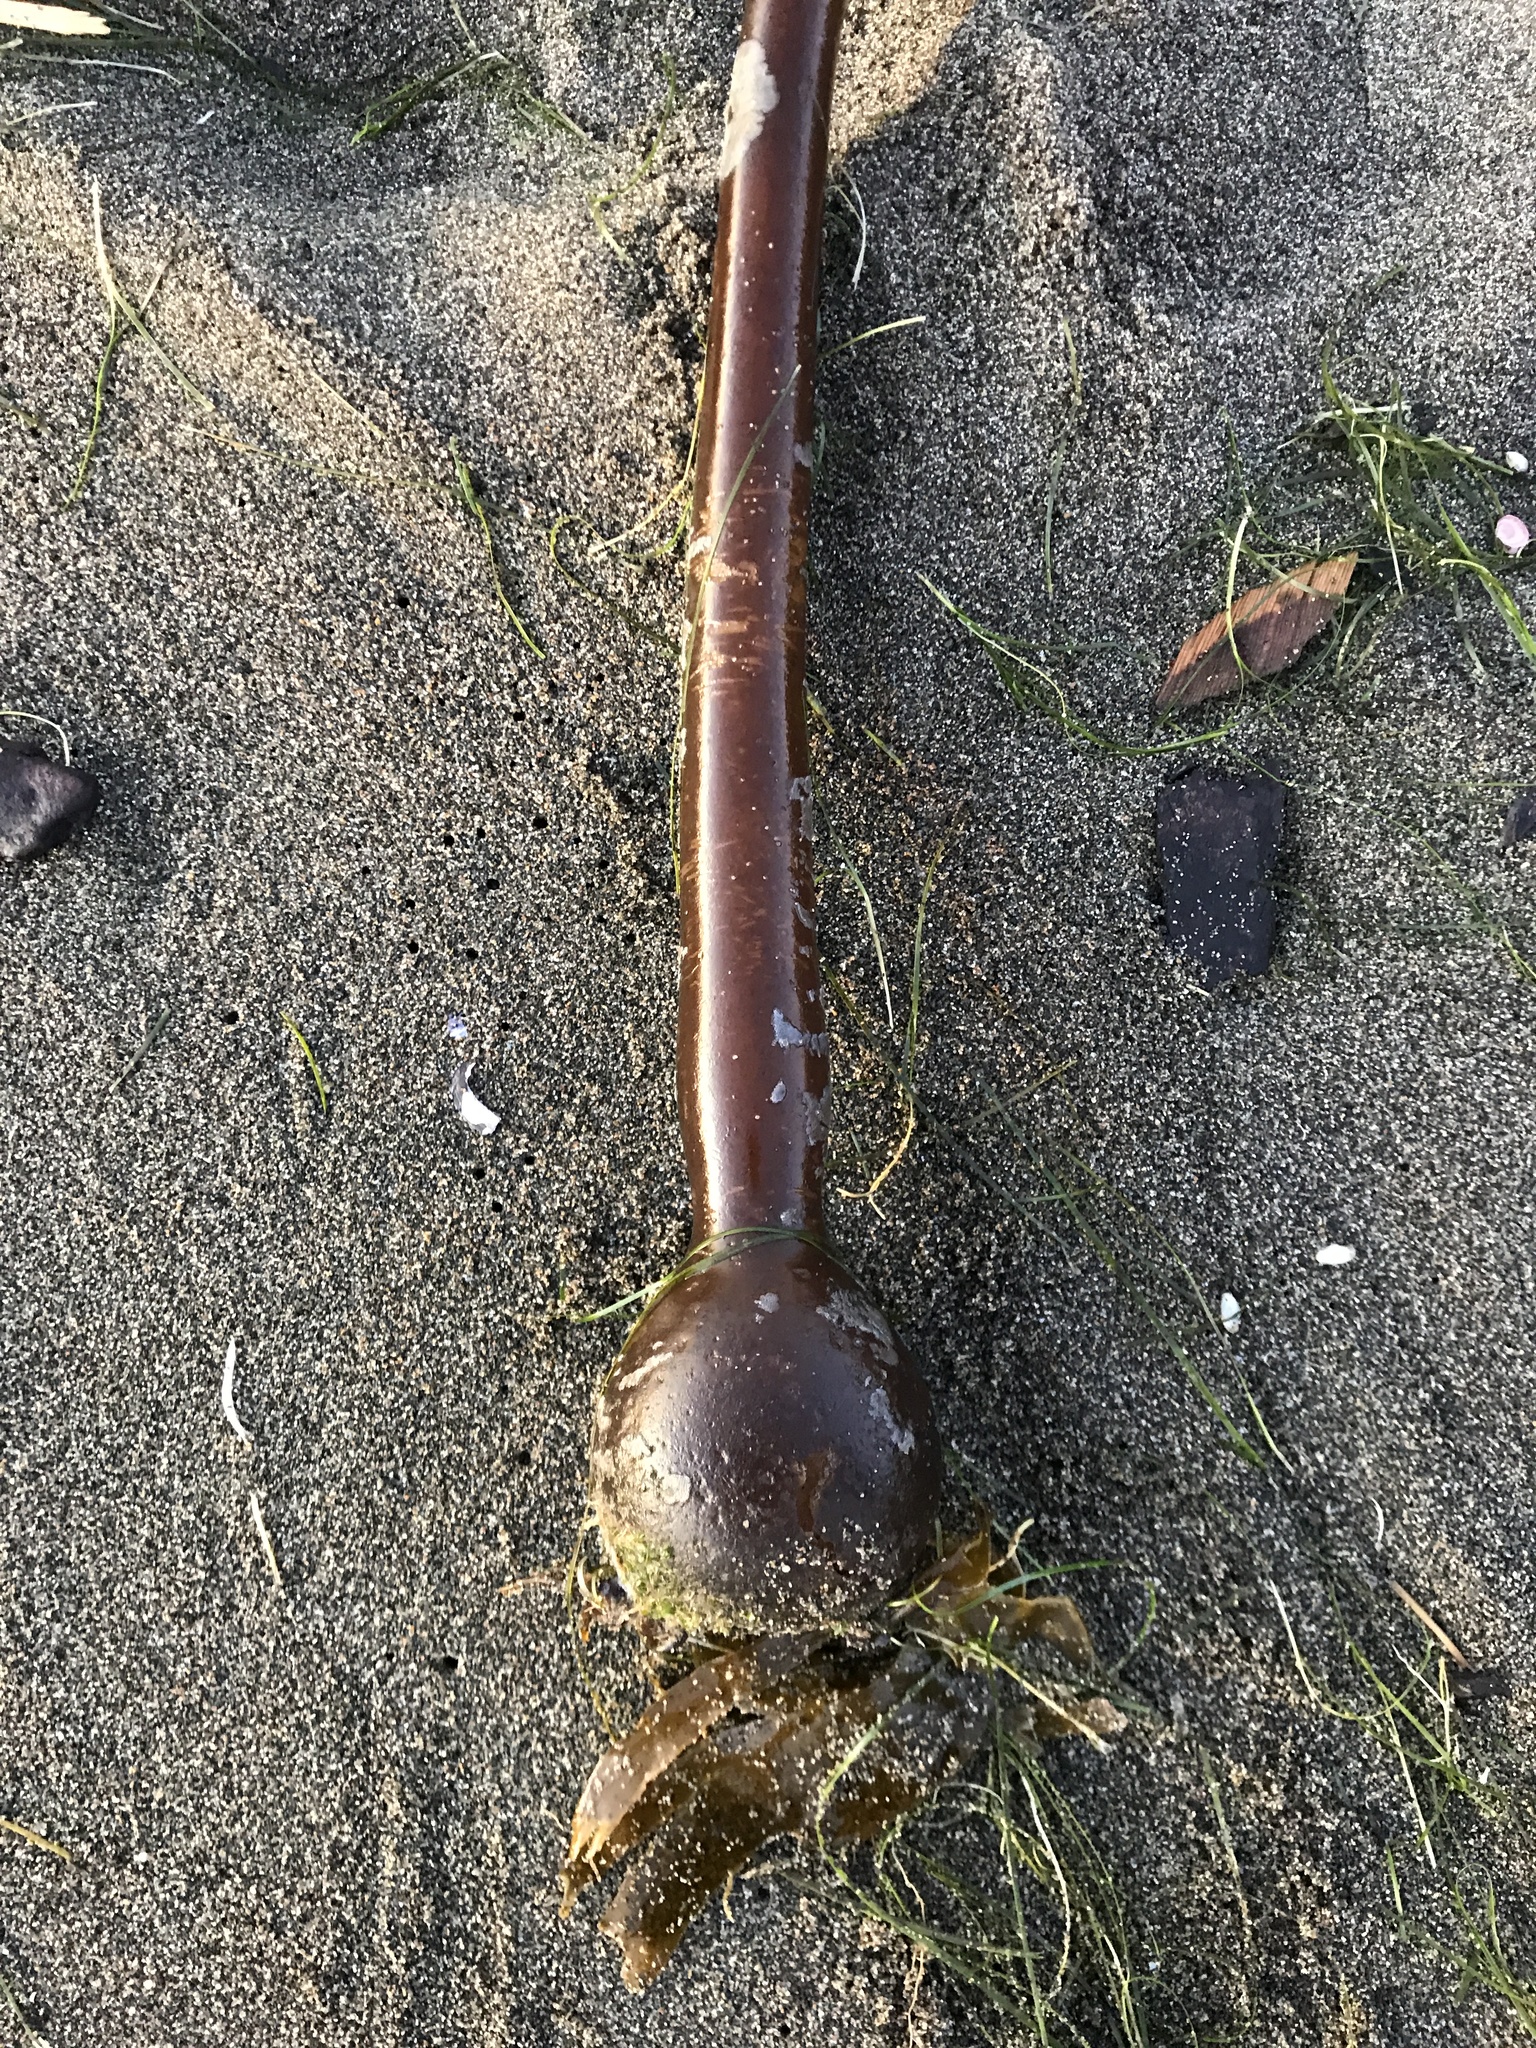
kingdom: Chromista
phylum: Ochrophyta
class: Phaeophyceae
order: Laminariales
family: Laminariaceae
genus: Nereocystis
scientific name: Nereocystis luetkeana
